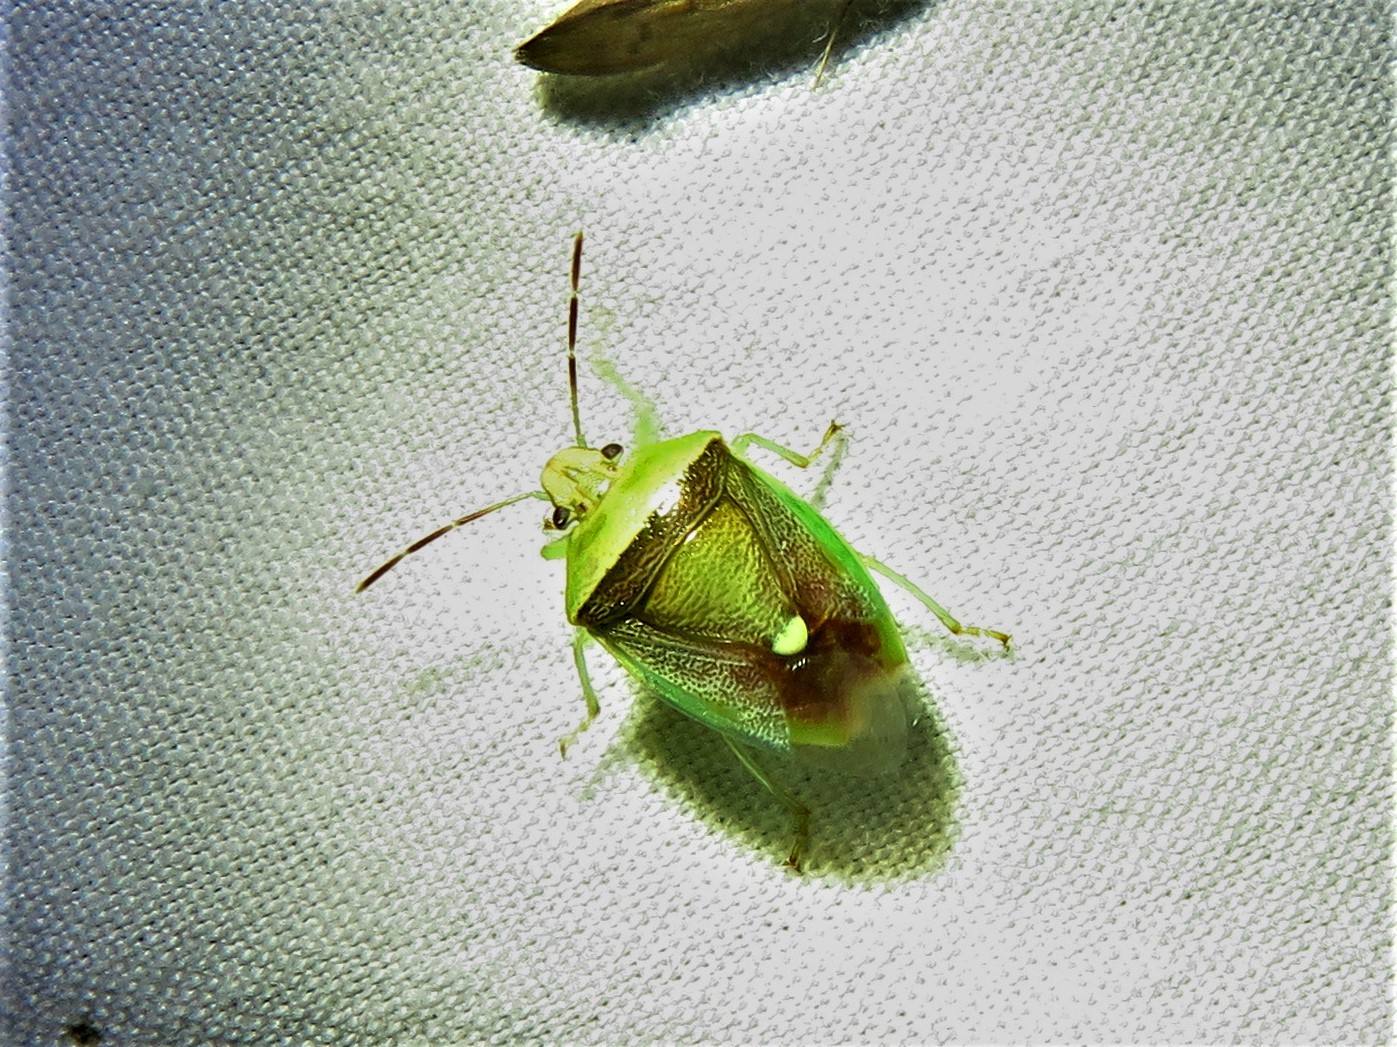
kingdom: Animalia
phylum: Arthropoda
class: Insecta
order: Hemiptera
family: Pentatomidae
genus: Banasa
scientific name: Banasa dimidiata
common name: Green burgundy stink bug
